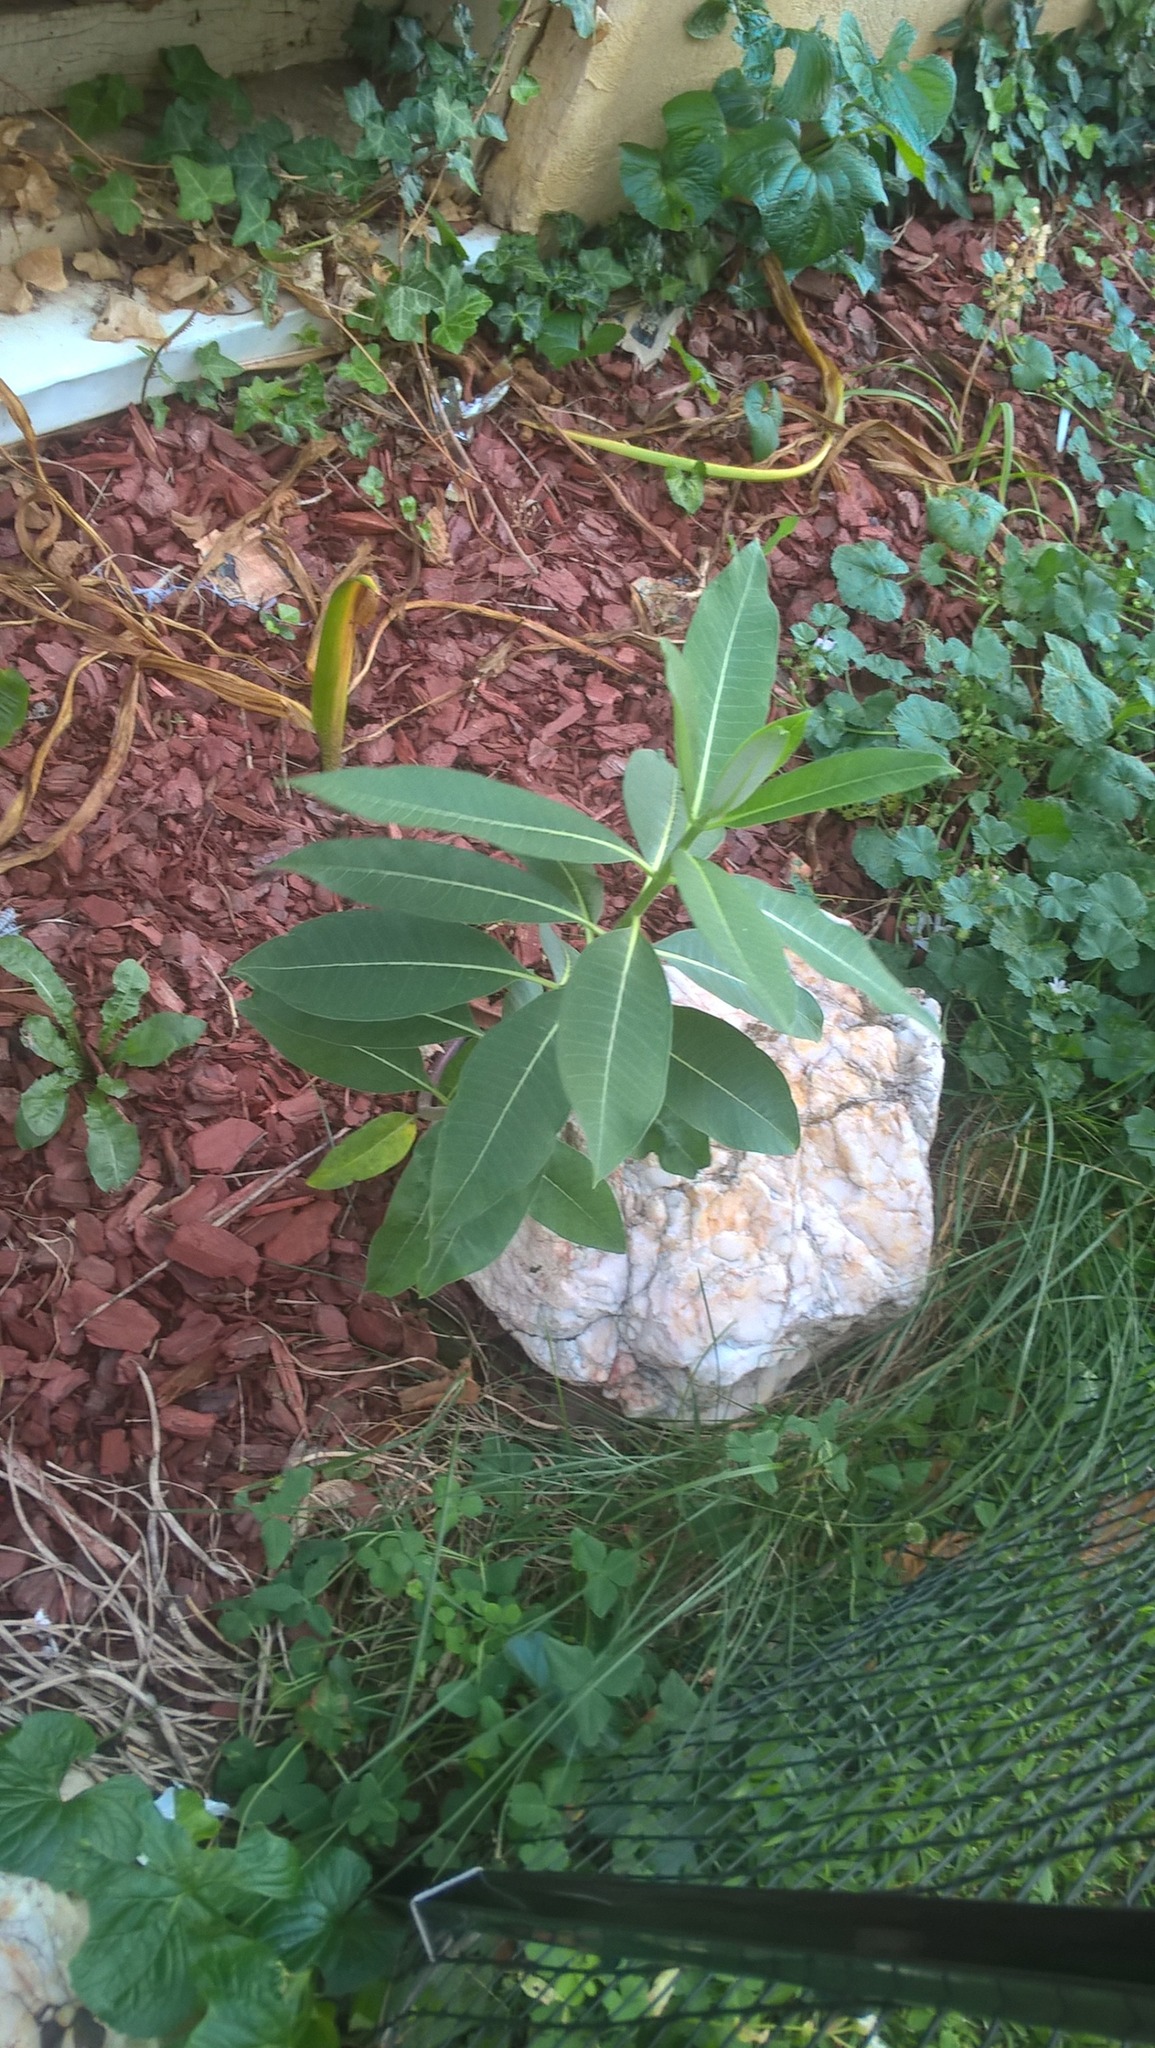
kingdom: Plantae
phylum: Tracheophyta
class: Magnoliopsida
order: Gentianales
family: Apocynaceae
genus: Asclepias
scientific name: Asclepias syriaca
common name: Common milkweed
